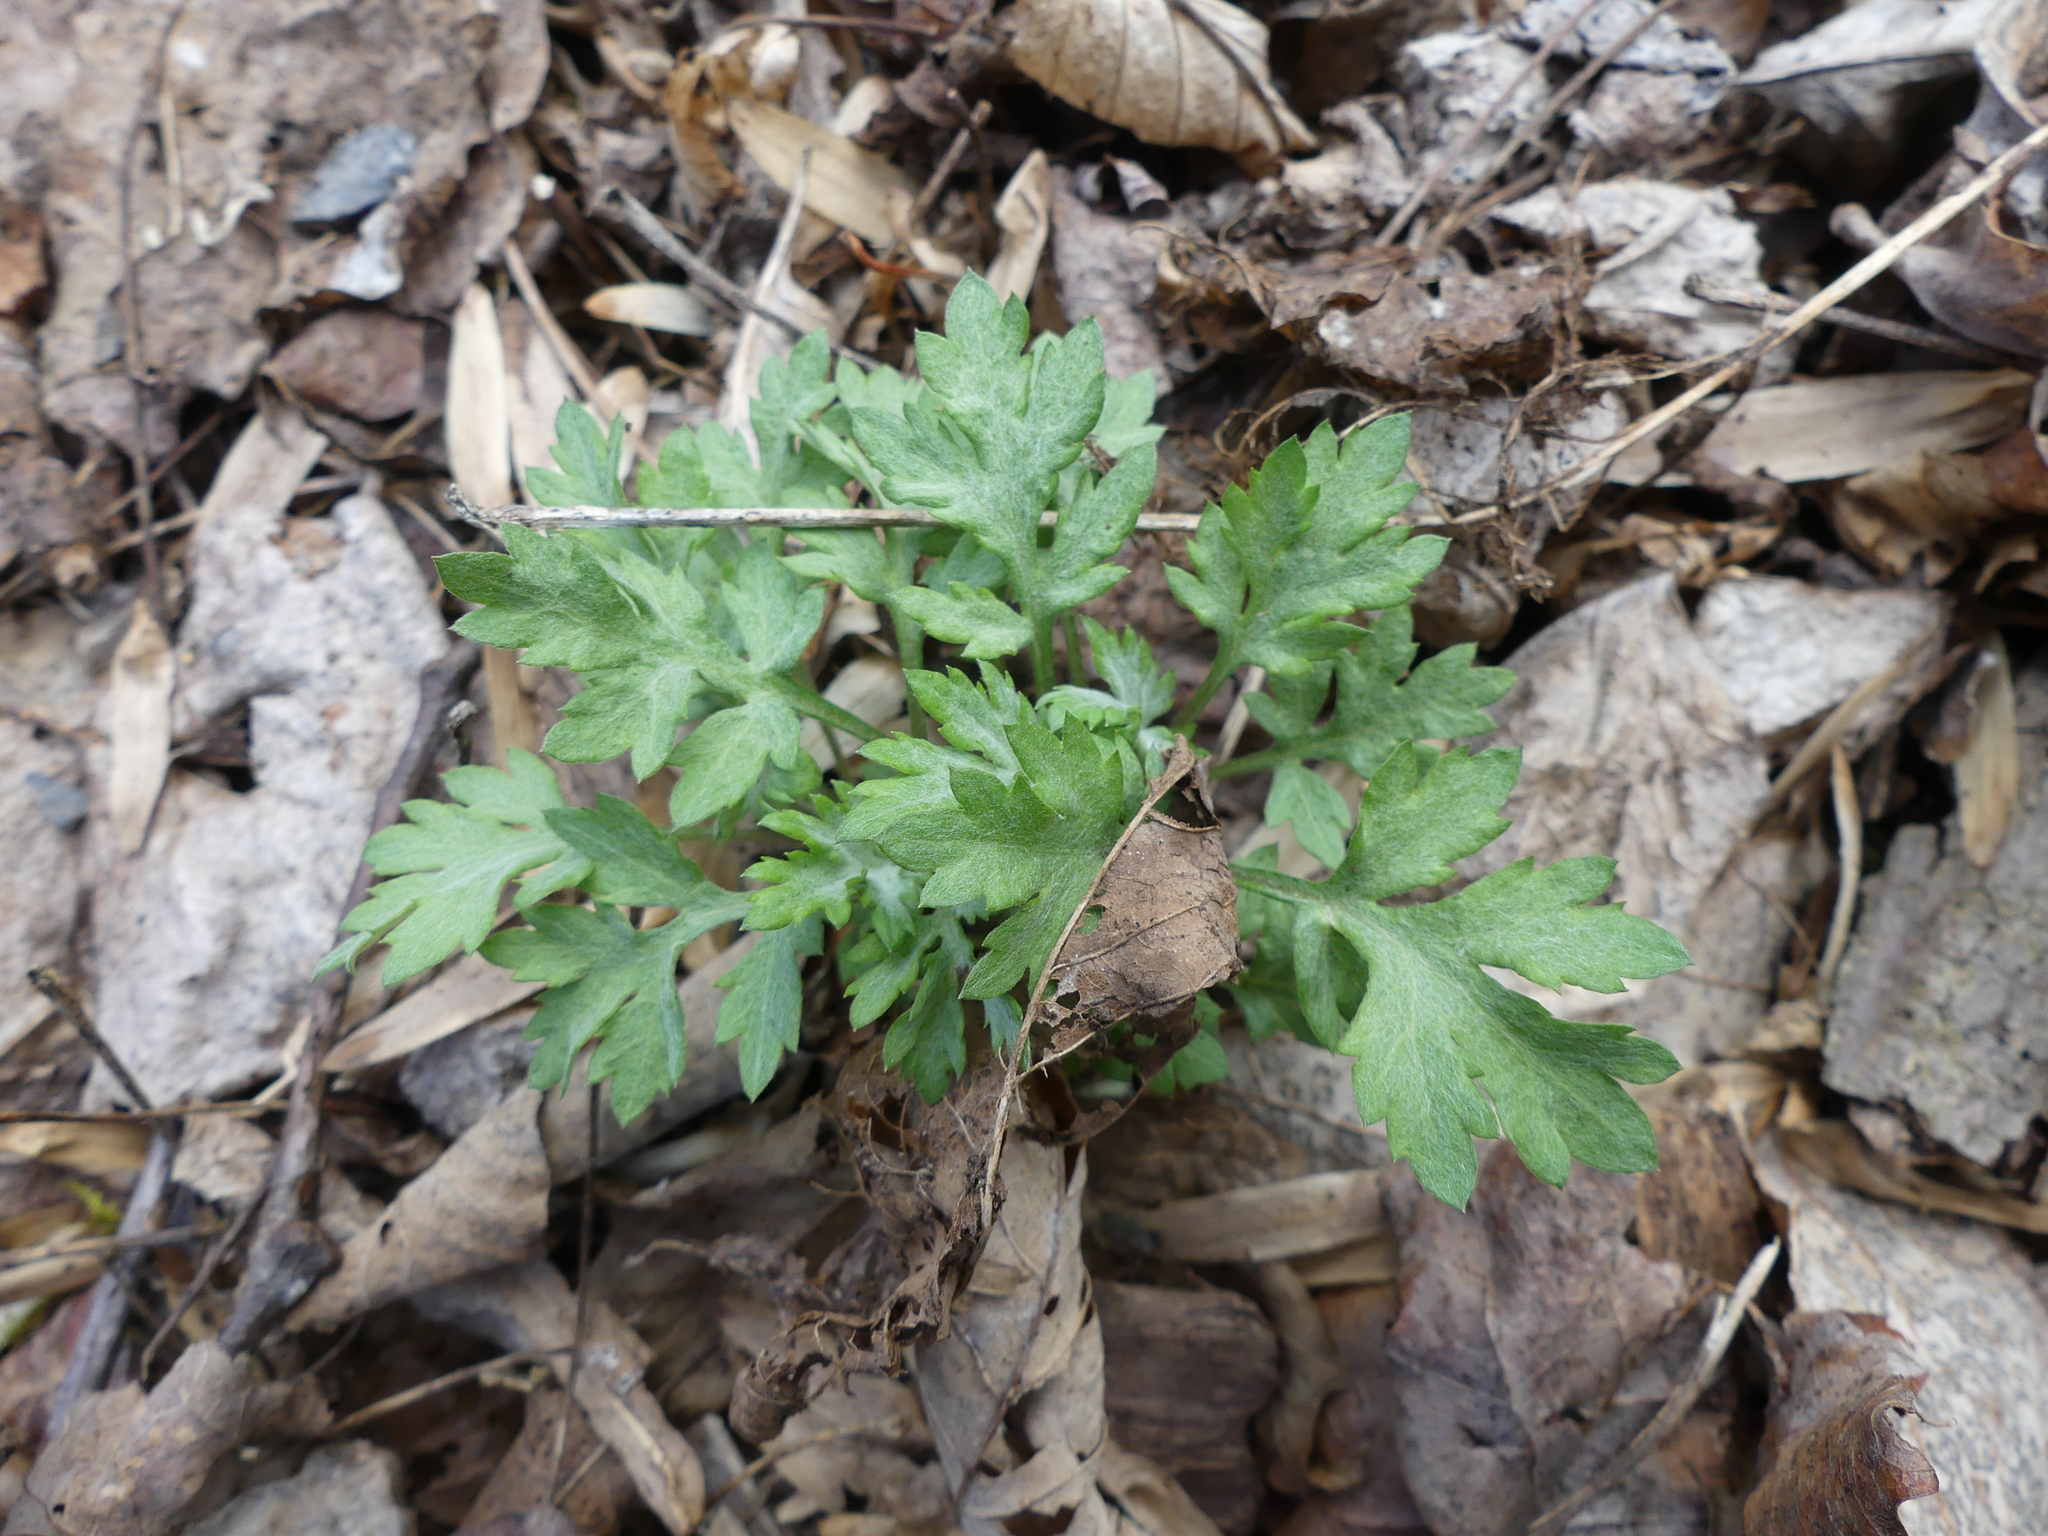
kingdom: Plantae
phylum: Tracheophyta
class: Magnoliopsida
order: Asterales
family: Asteraceae
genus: Artemisia
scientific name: Artemisia vulgaris
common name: Mugwort
